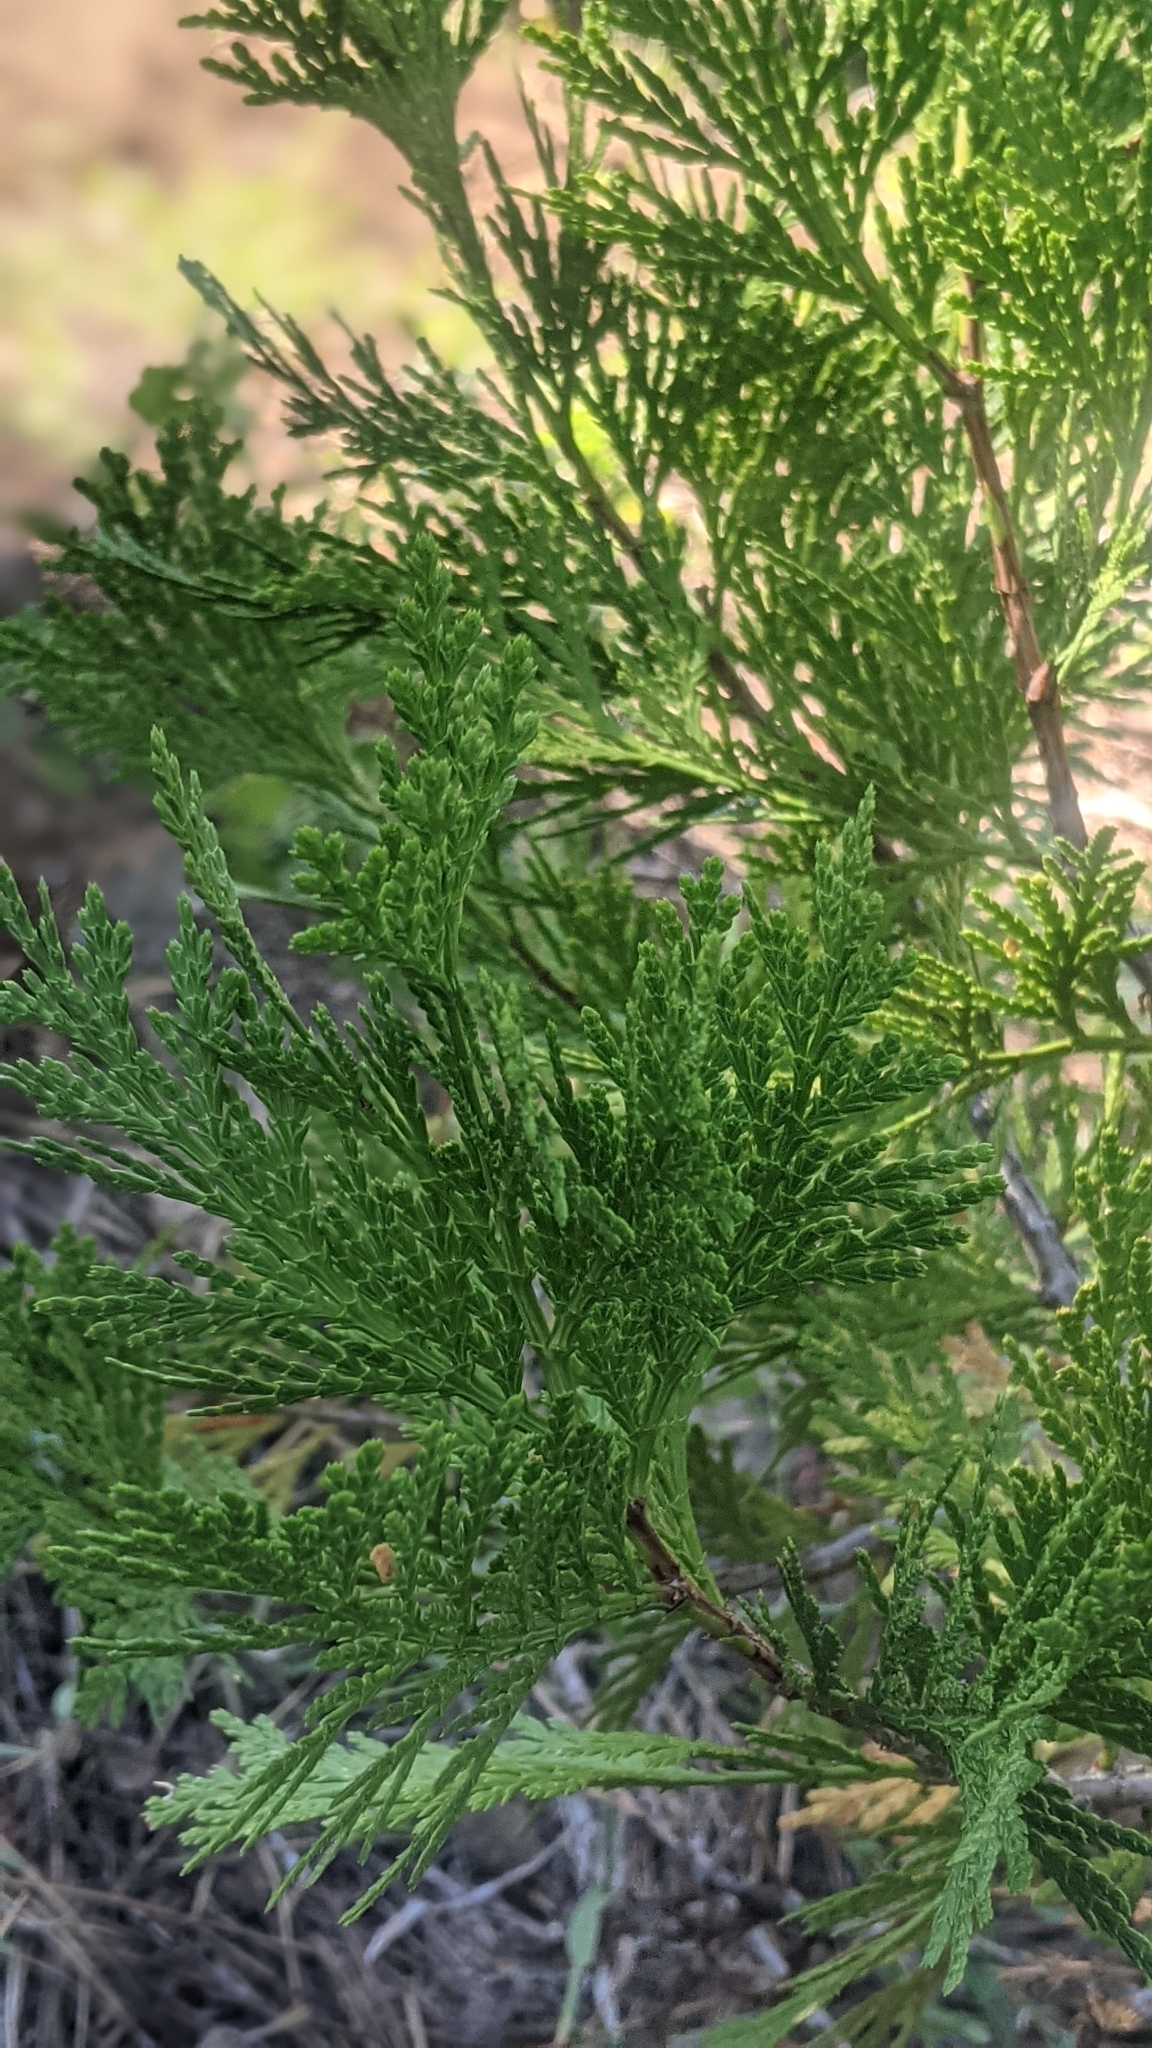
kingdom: Plantae
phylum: Tracheophyta
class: Pinopsida
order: Pinales
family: Cupressaceae
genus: Calocedrus
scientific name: Calocedrus decurrens
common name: Californian incense-cedar
